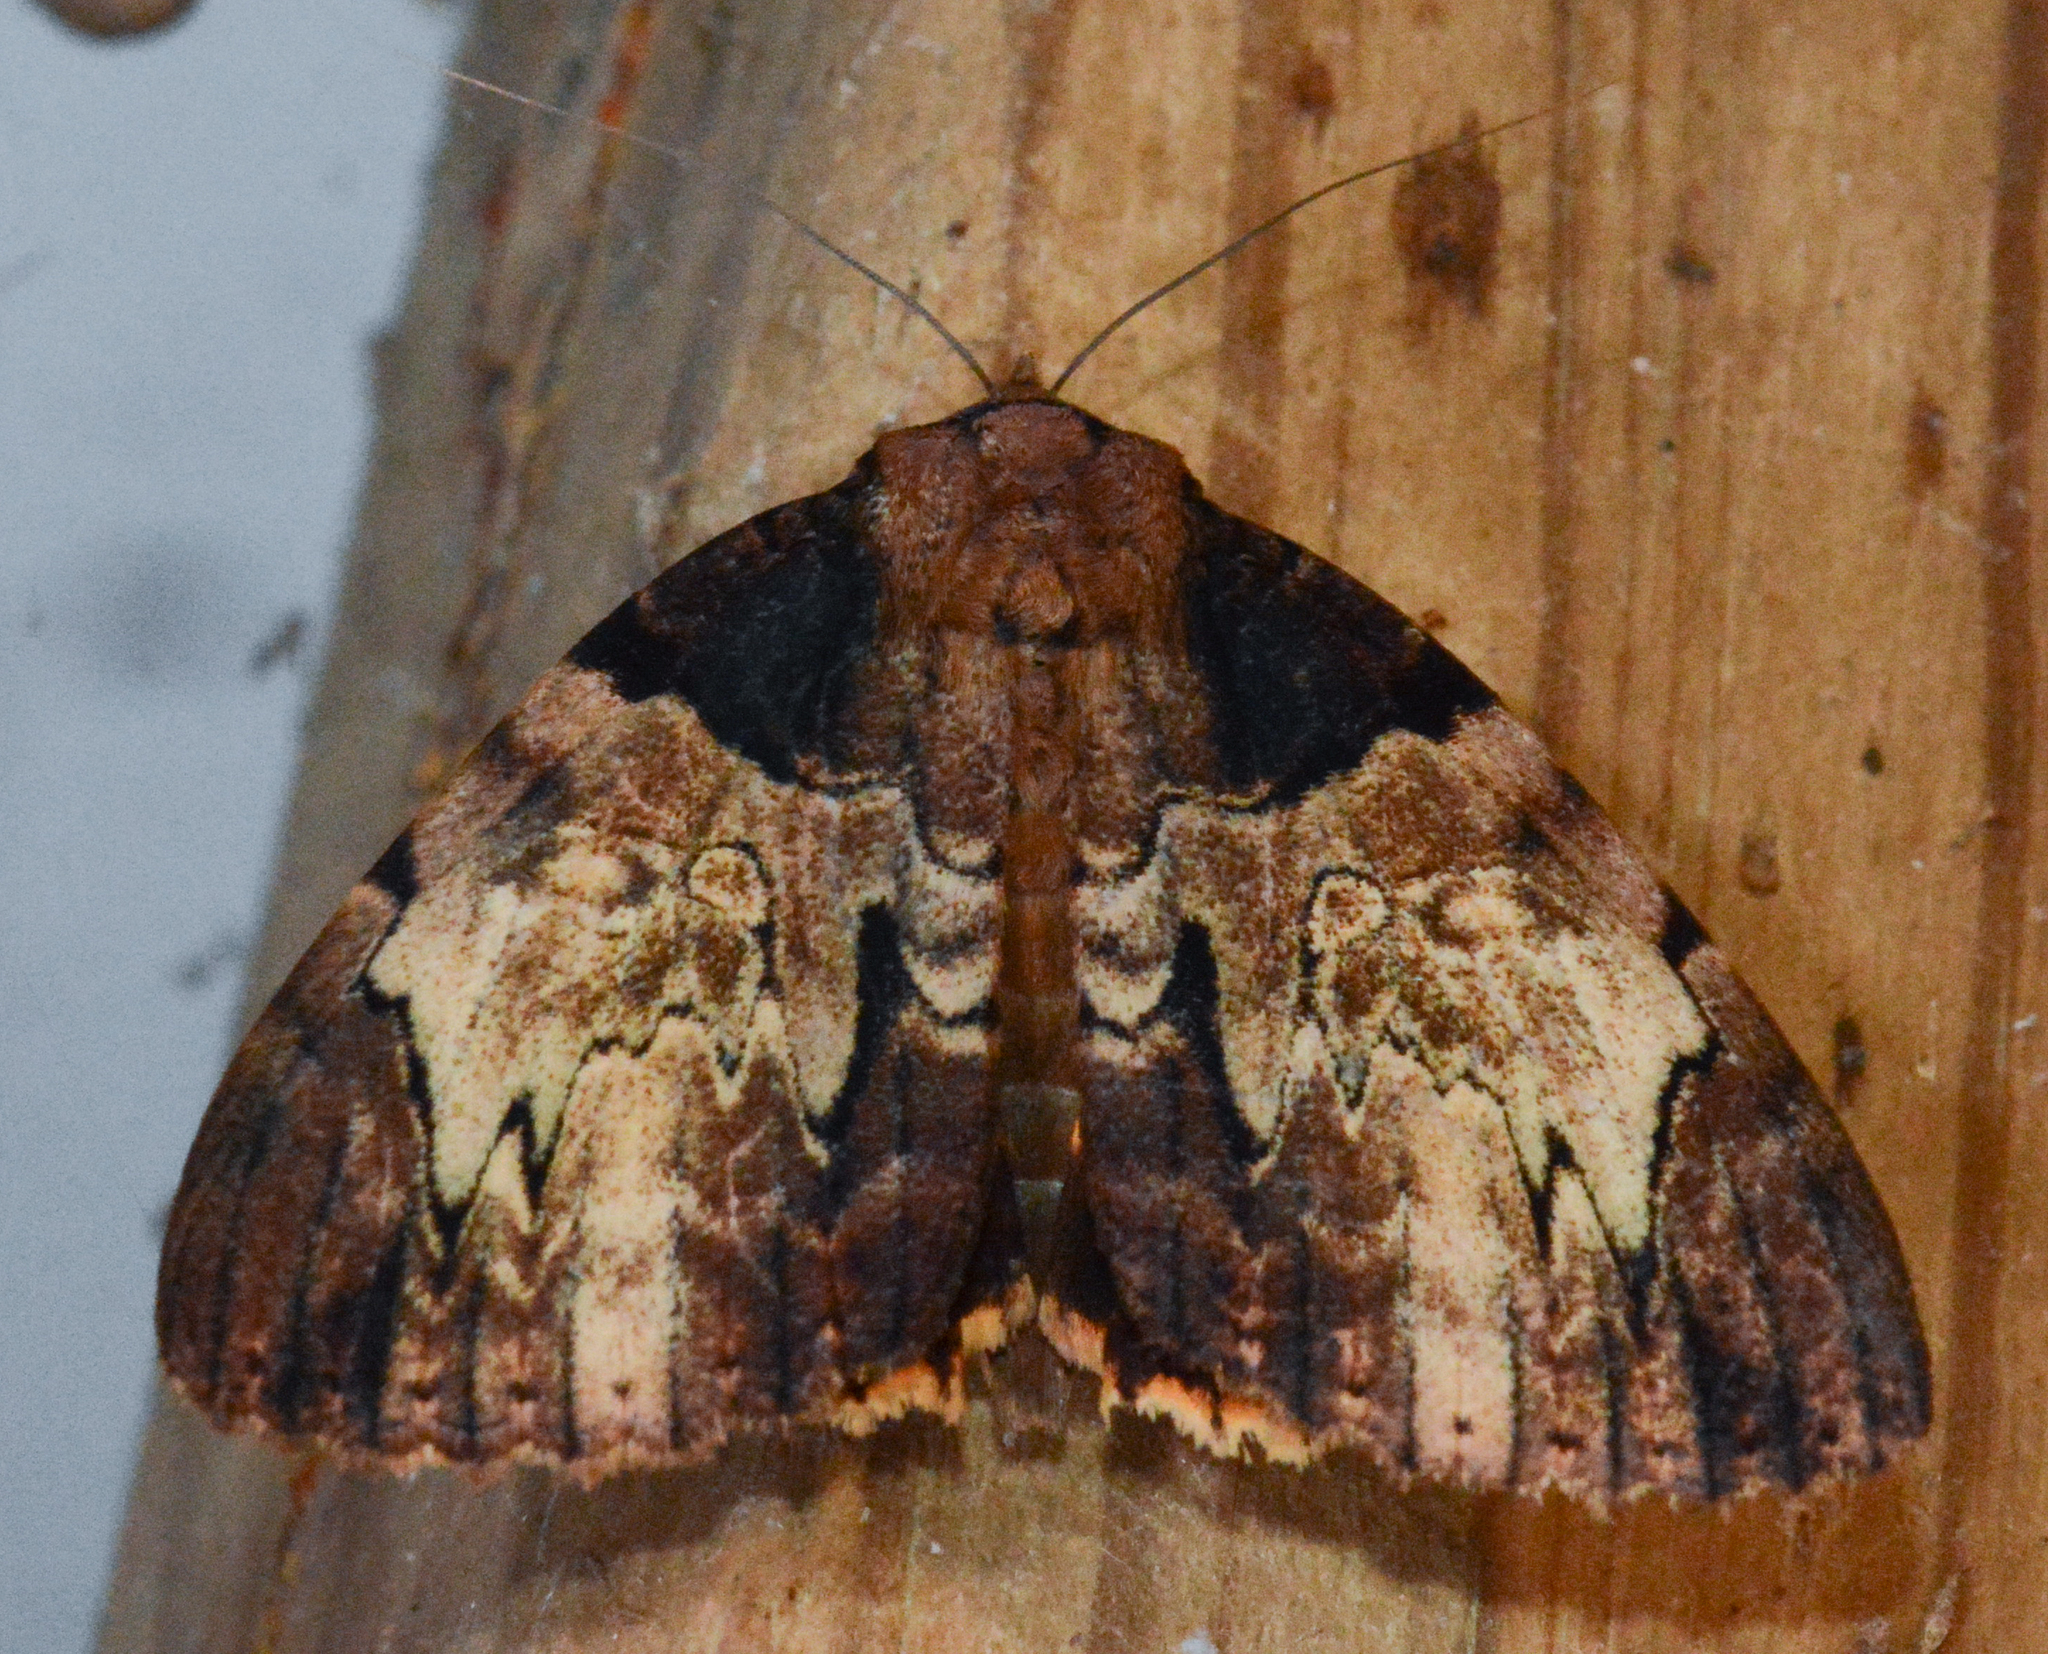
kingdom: Animalia
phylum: Arthropoda
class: Insecta
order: Lepidoptera
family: Erebidae
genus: Catocala
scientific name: Catocala nebulosa
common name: Clouded underwing
